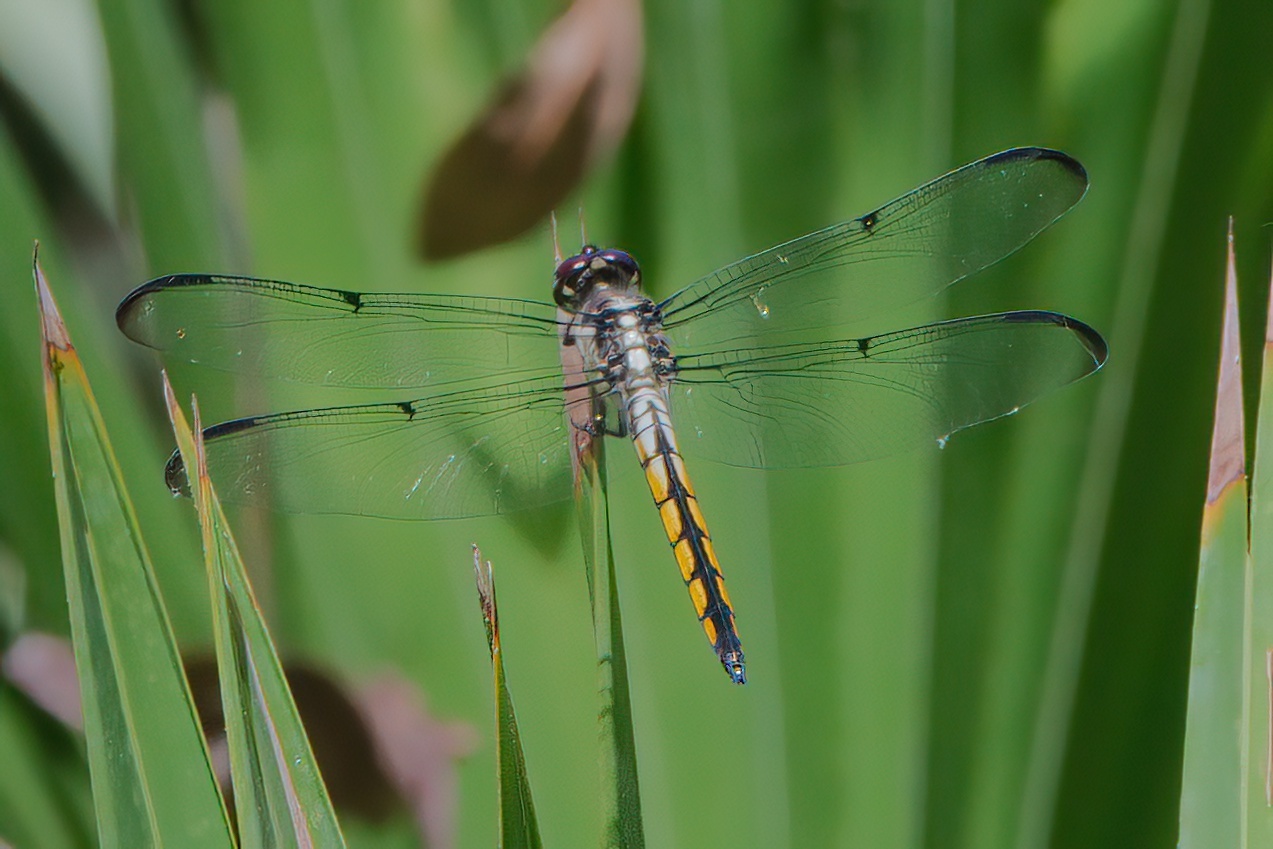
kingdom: Animalia
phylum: Arthropoda
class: Insecta
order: Odonata
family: Libellulidae
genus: Libellula
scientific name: Libellula vibrans
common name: Great blue skimmer
